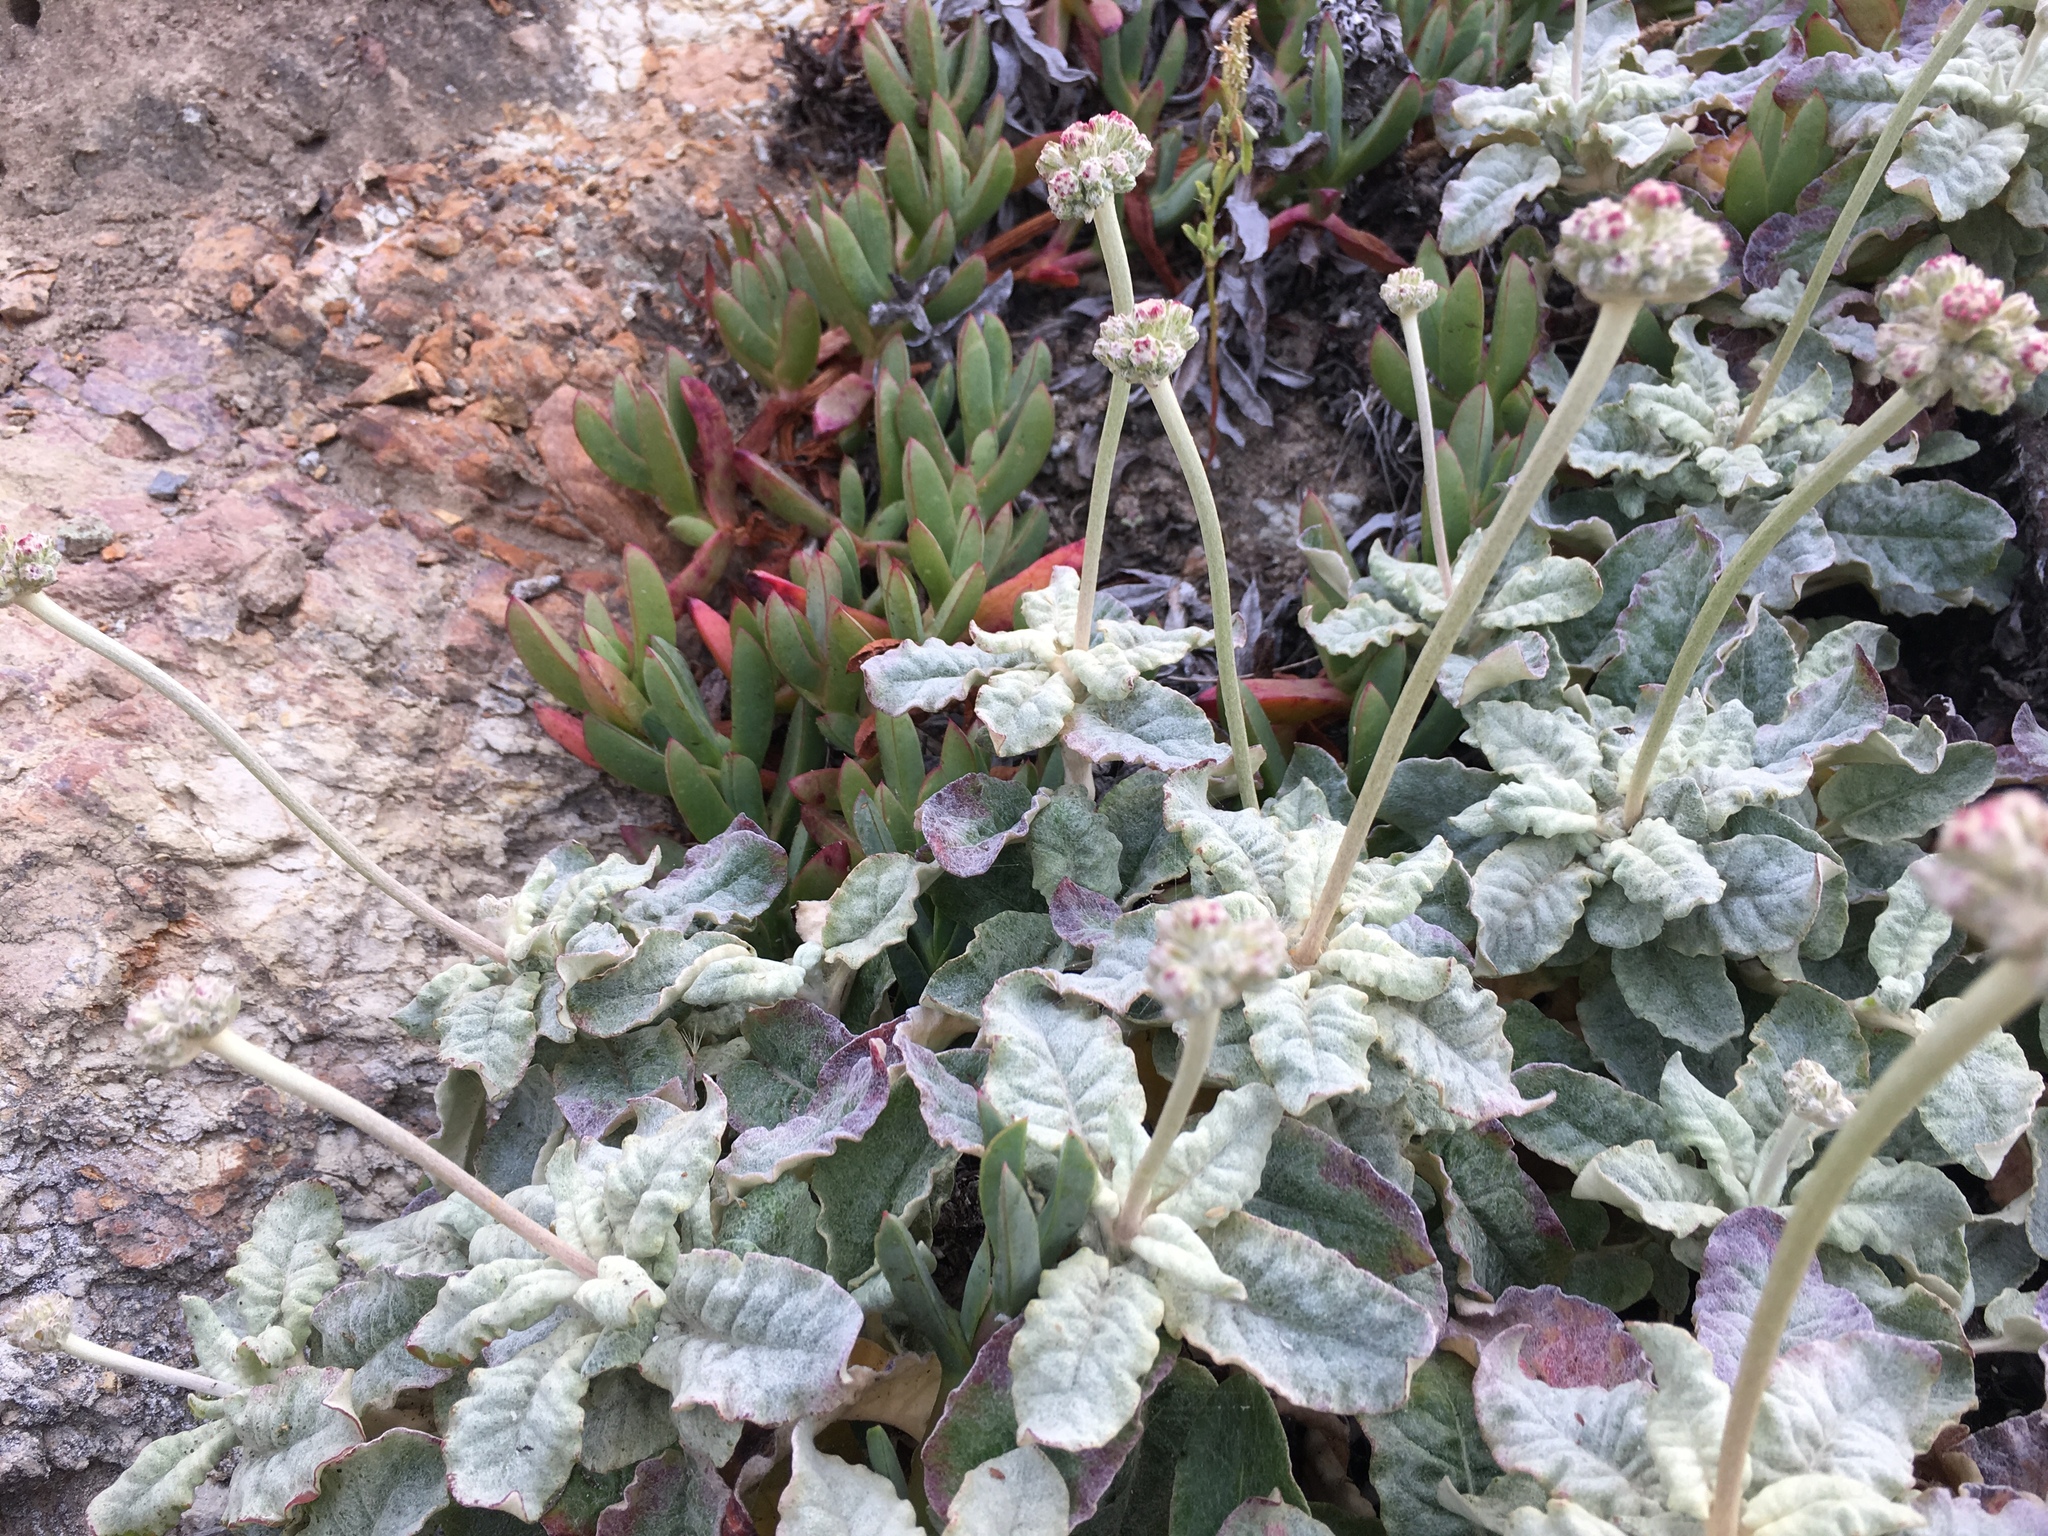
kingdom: Plantae
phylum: Tracheophyta
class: Magnoliopsida
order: Caryophyllales
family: Polygonaceae
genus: Eriogonum
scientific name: Eriogonum latifolium
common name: Seaside wild buckwheat
